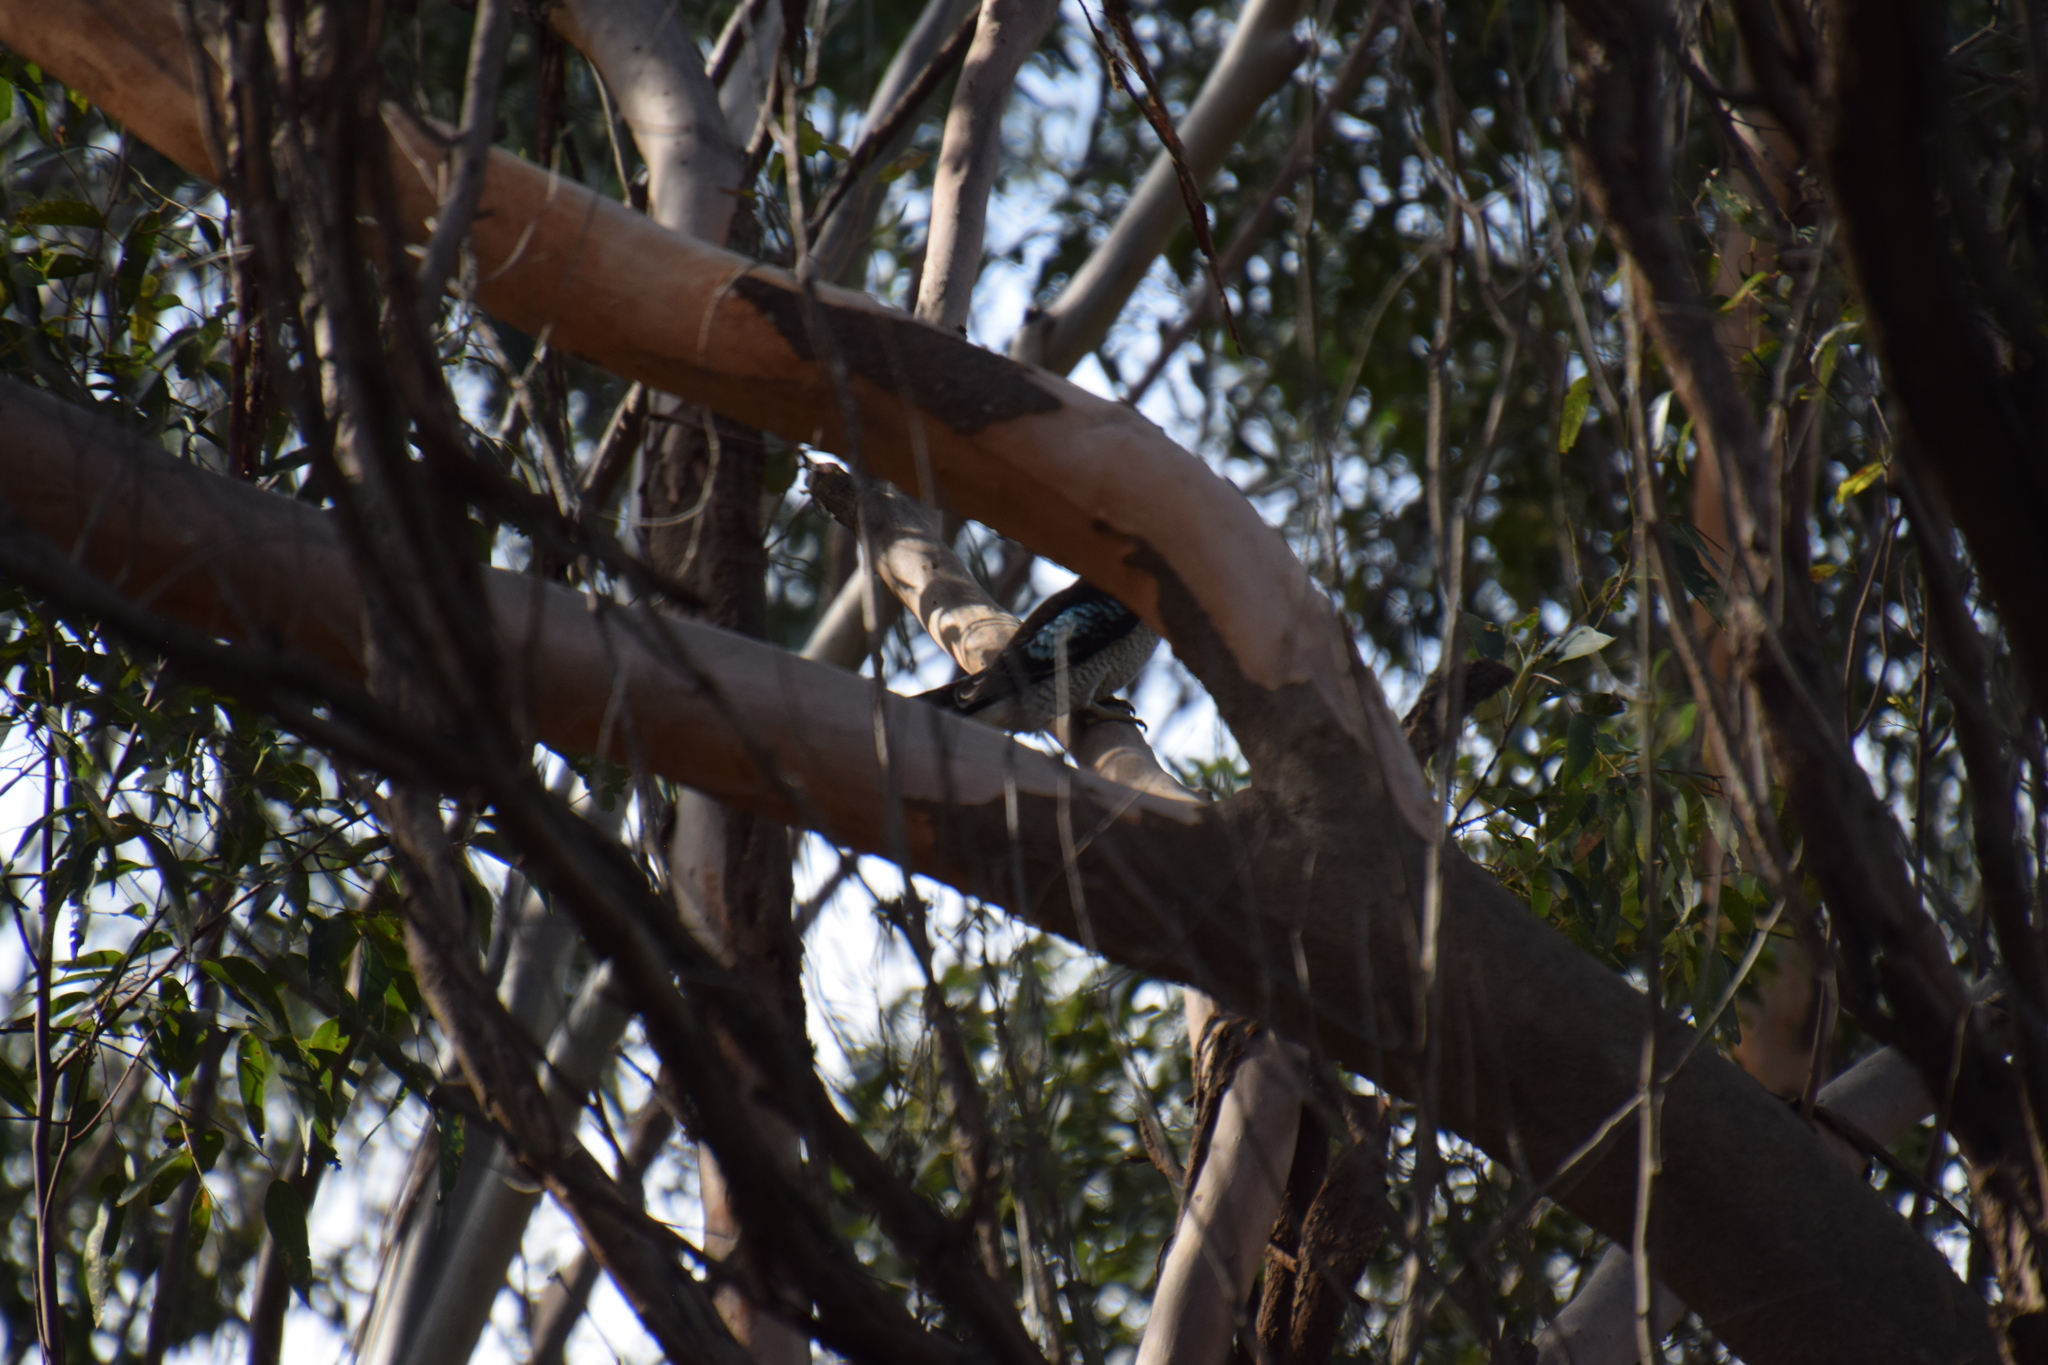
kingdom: Animalia
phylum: Chordata
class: Aves
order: Coraciiformes
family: Alcedinidae
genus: Dacelo
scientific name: Dacelo novaeguineae
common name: Laughing kookaburra
